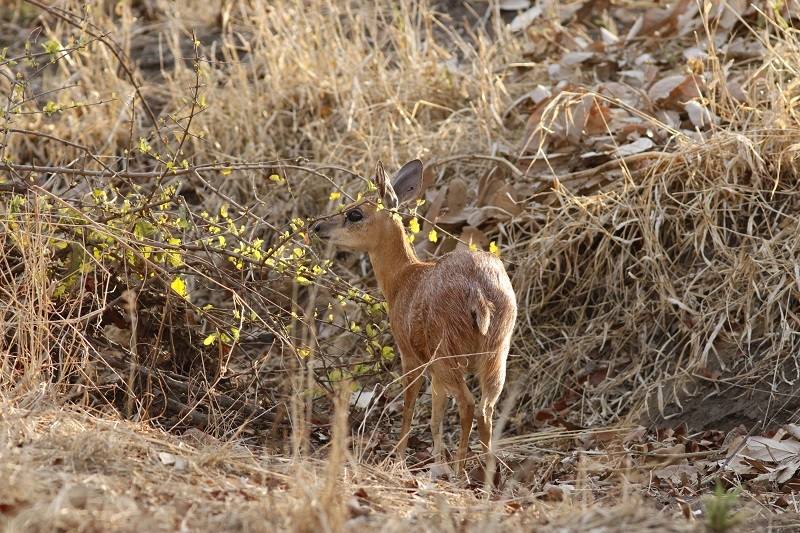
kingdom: Animalia
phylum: Chordata
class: Mammalia
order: Artiodactyla
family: Bovidae
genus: Raphicerus
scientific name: Raphicerus sharpei
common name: Sharpe's grysbok
